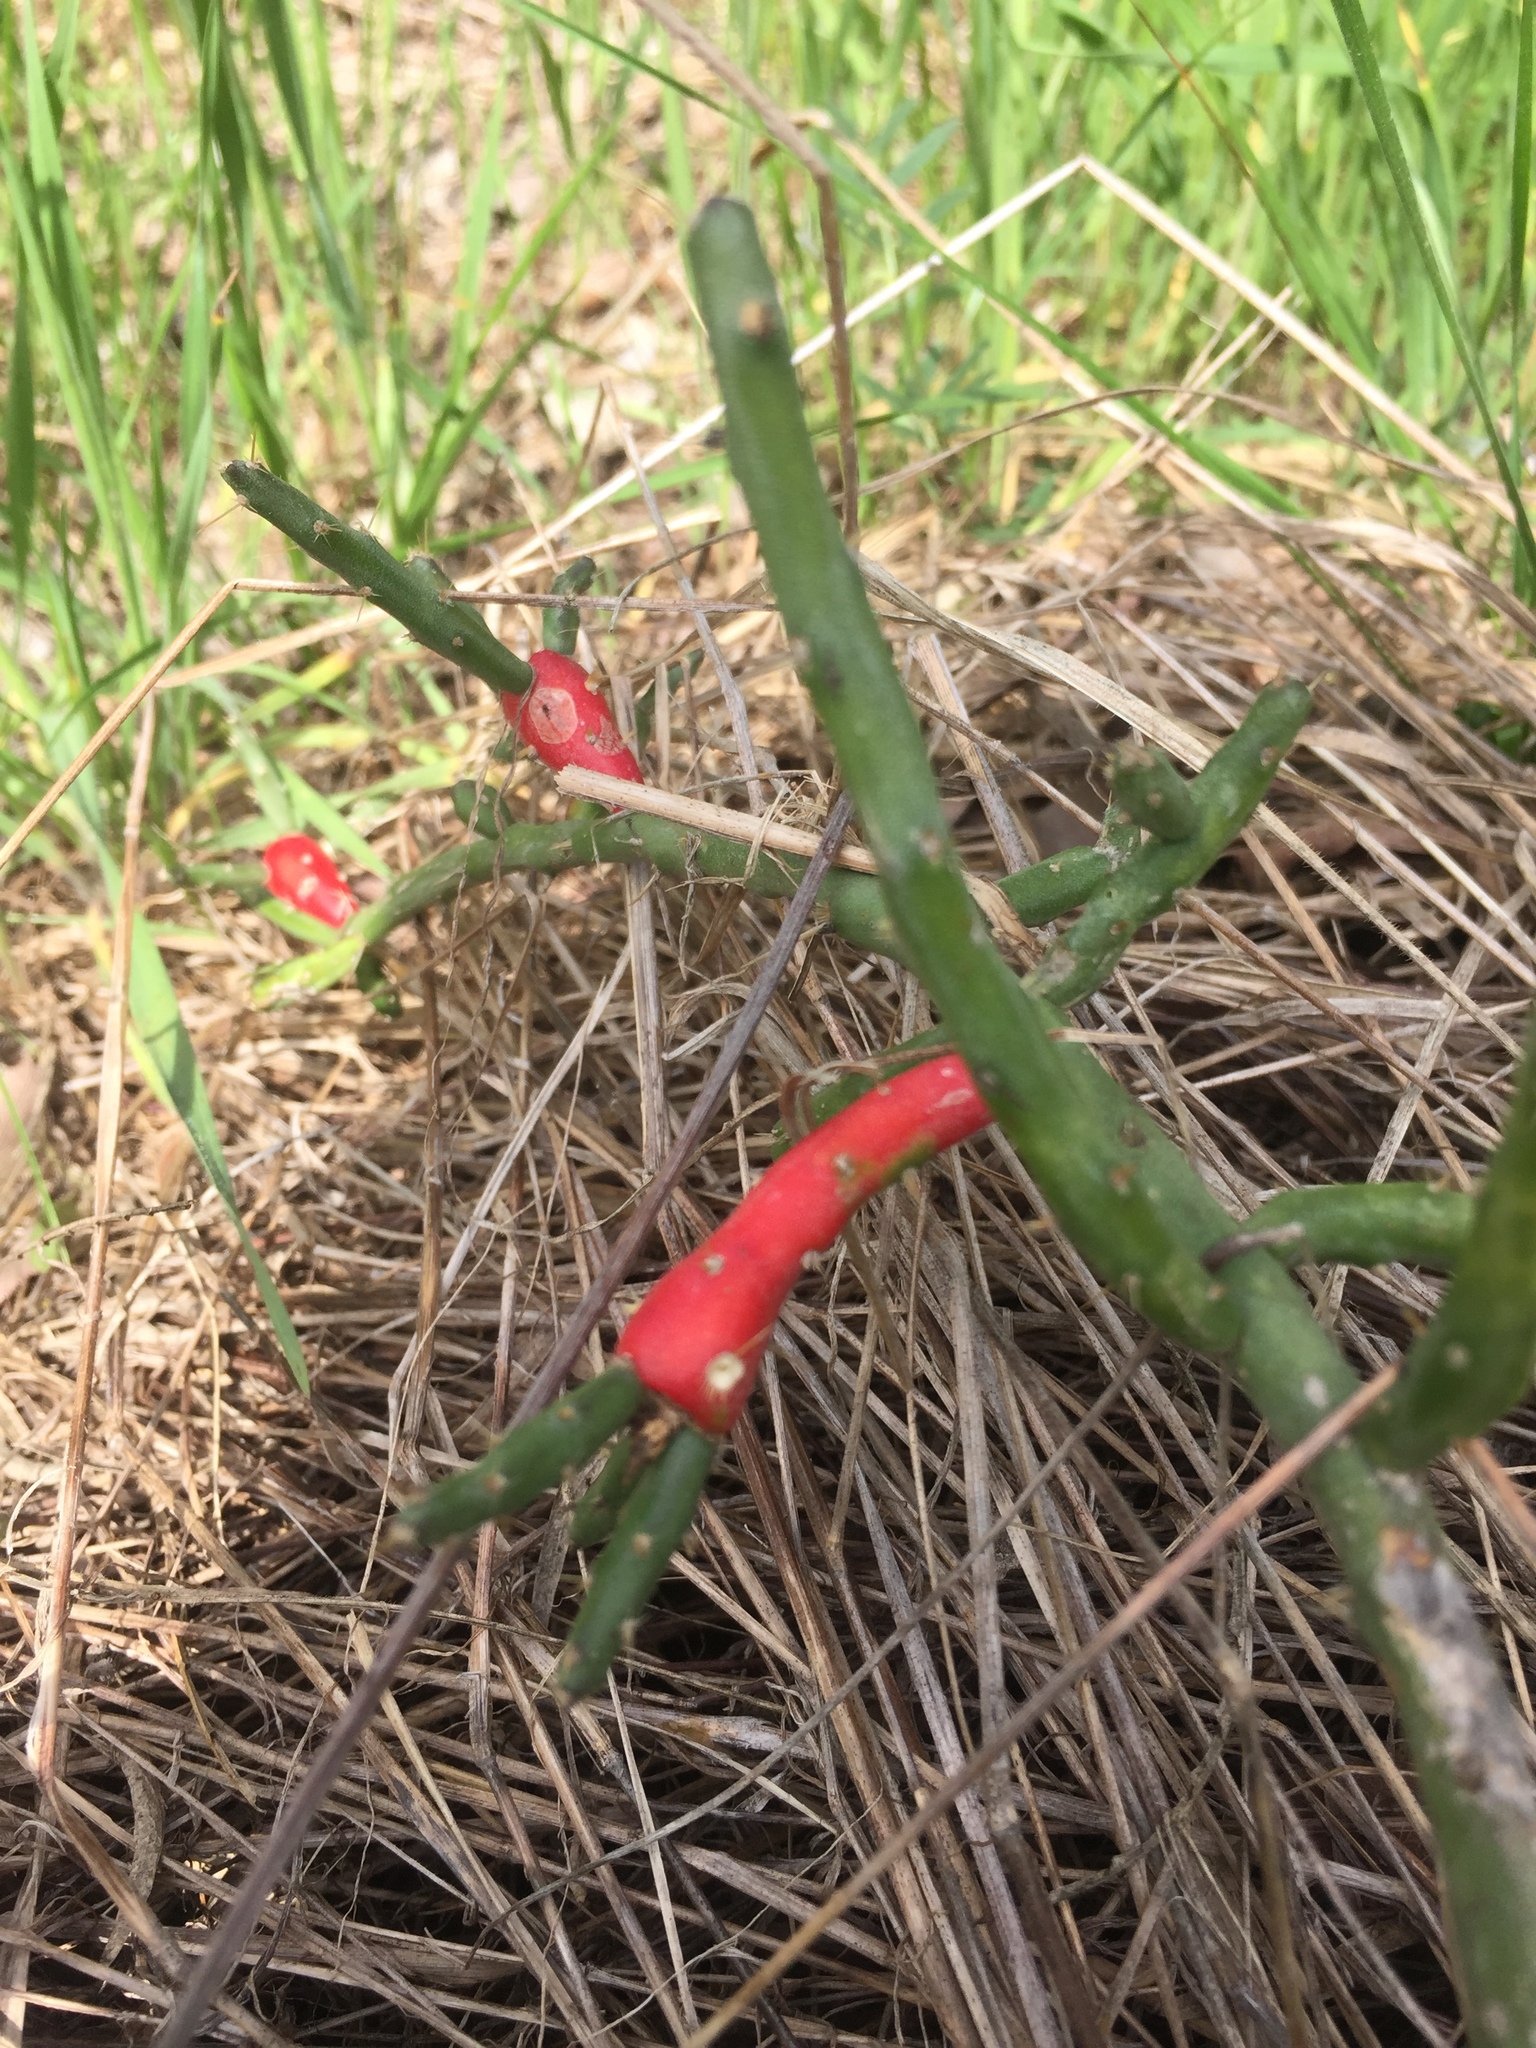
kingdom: Plantae
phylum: Tracheophyta
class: Magnoliopsida
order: Caryophyllales
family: Cactaceae
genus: Cylindropuntia
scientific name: Cylindropuntia leptocaulis
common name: Christmas cactus
